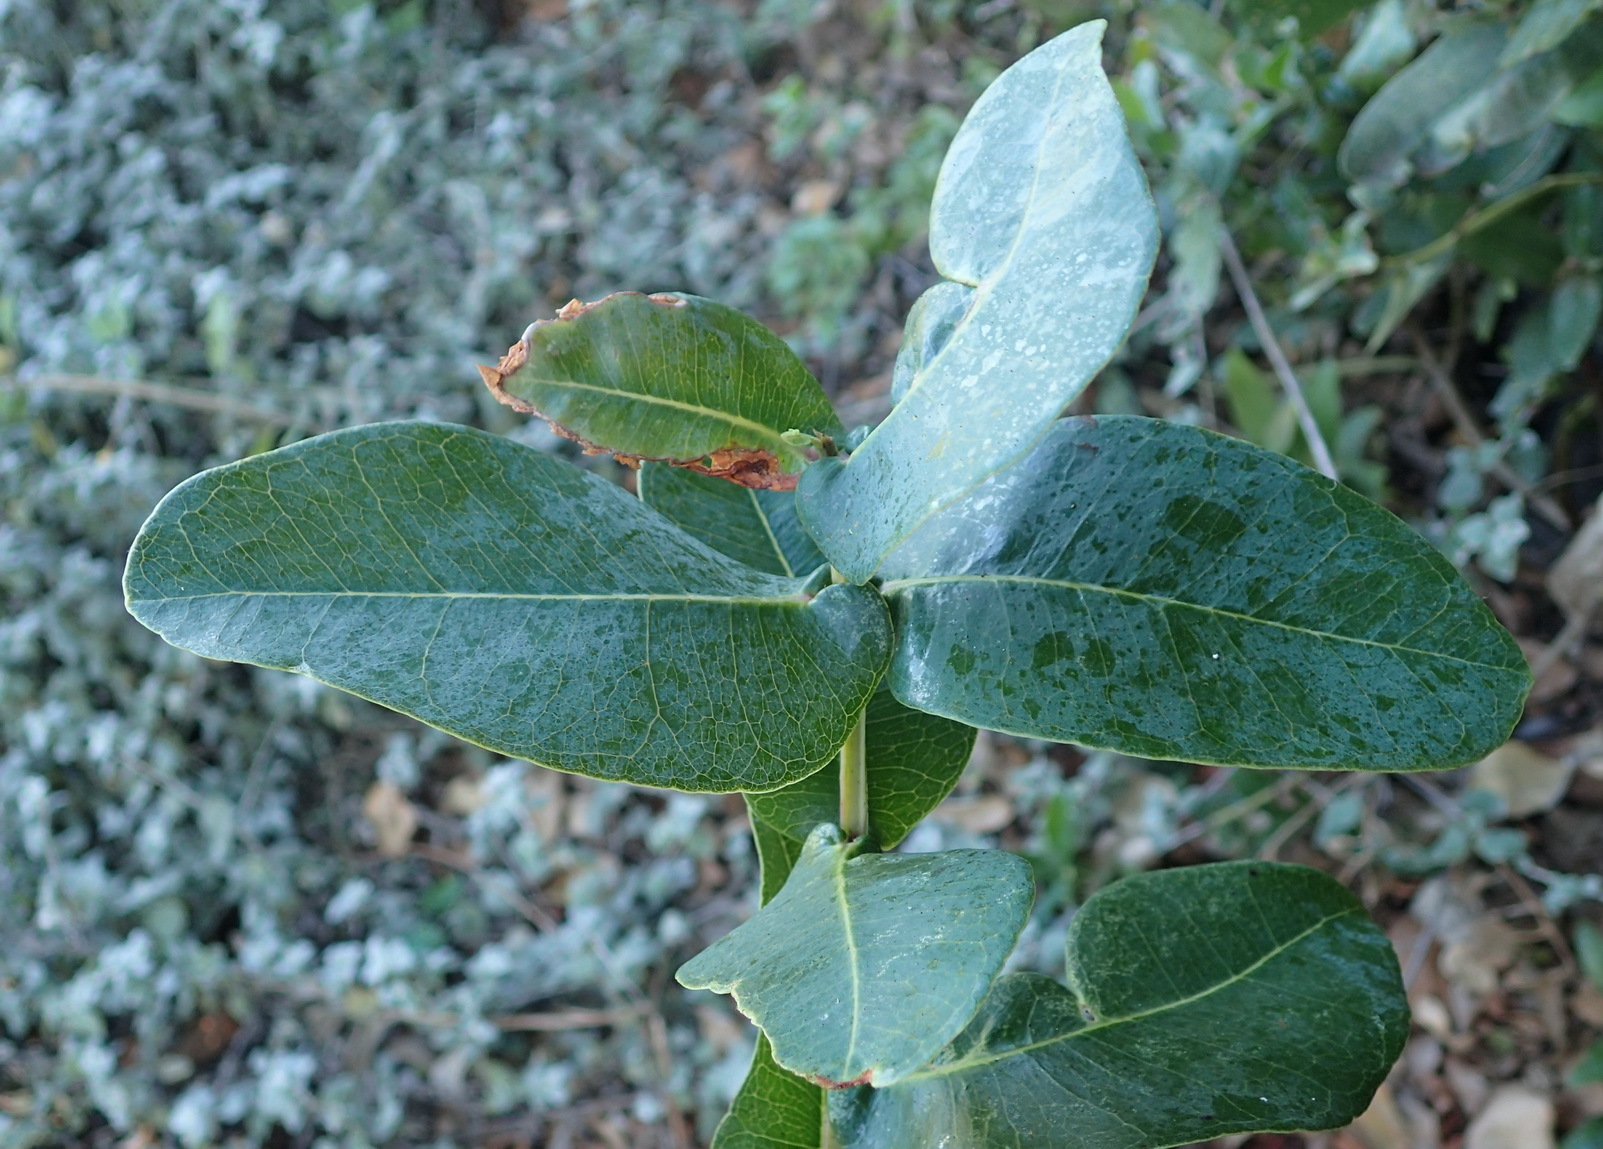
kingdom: Plantae
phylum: Tracheophyta
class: Magnoliopsida
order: Myrtales
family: Myrtaceae
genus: Syzygium
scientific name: Syzygium cordatum
